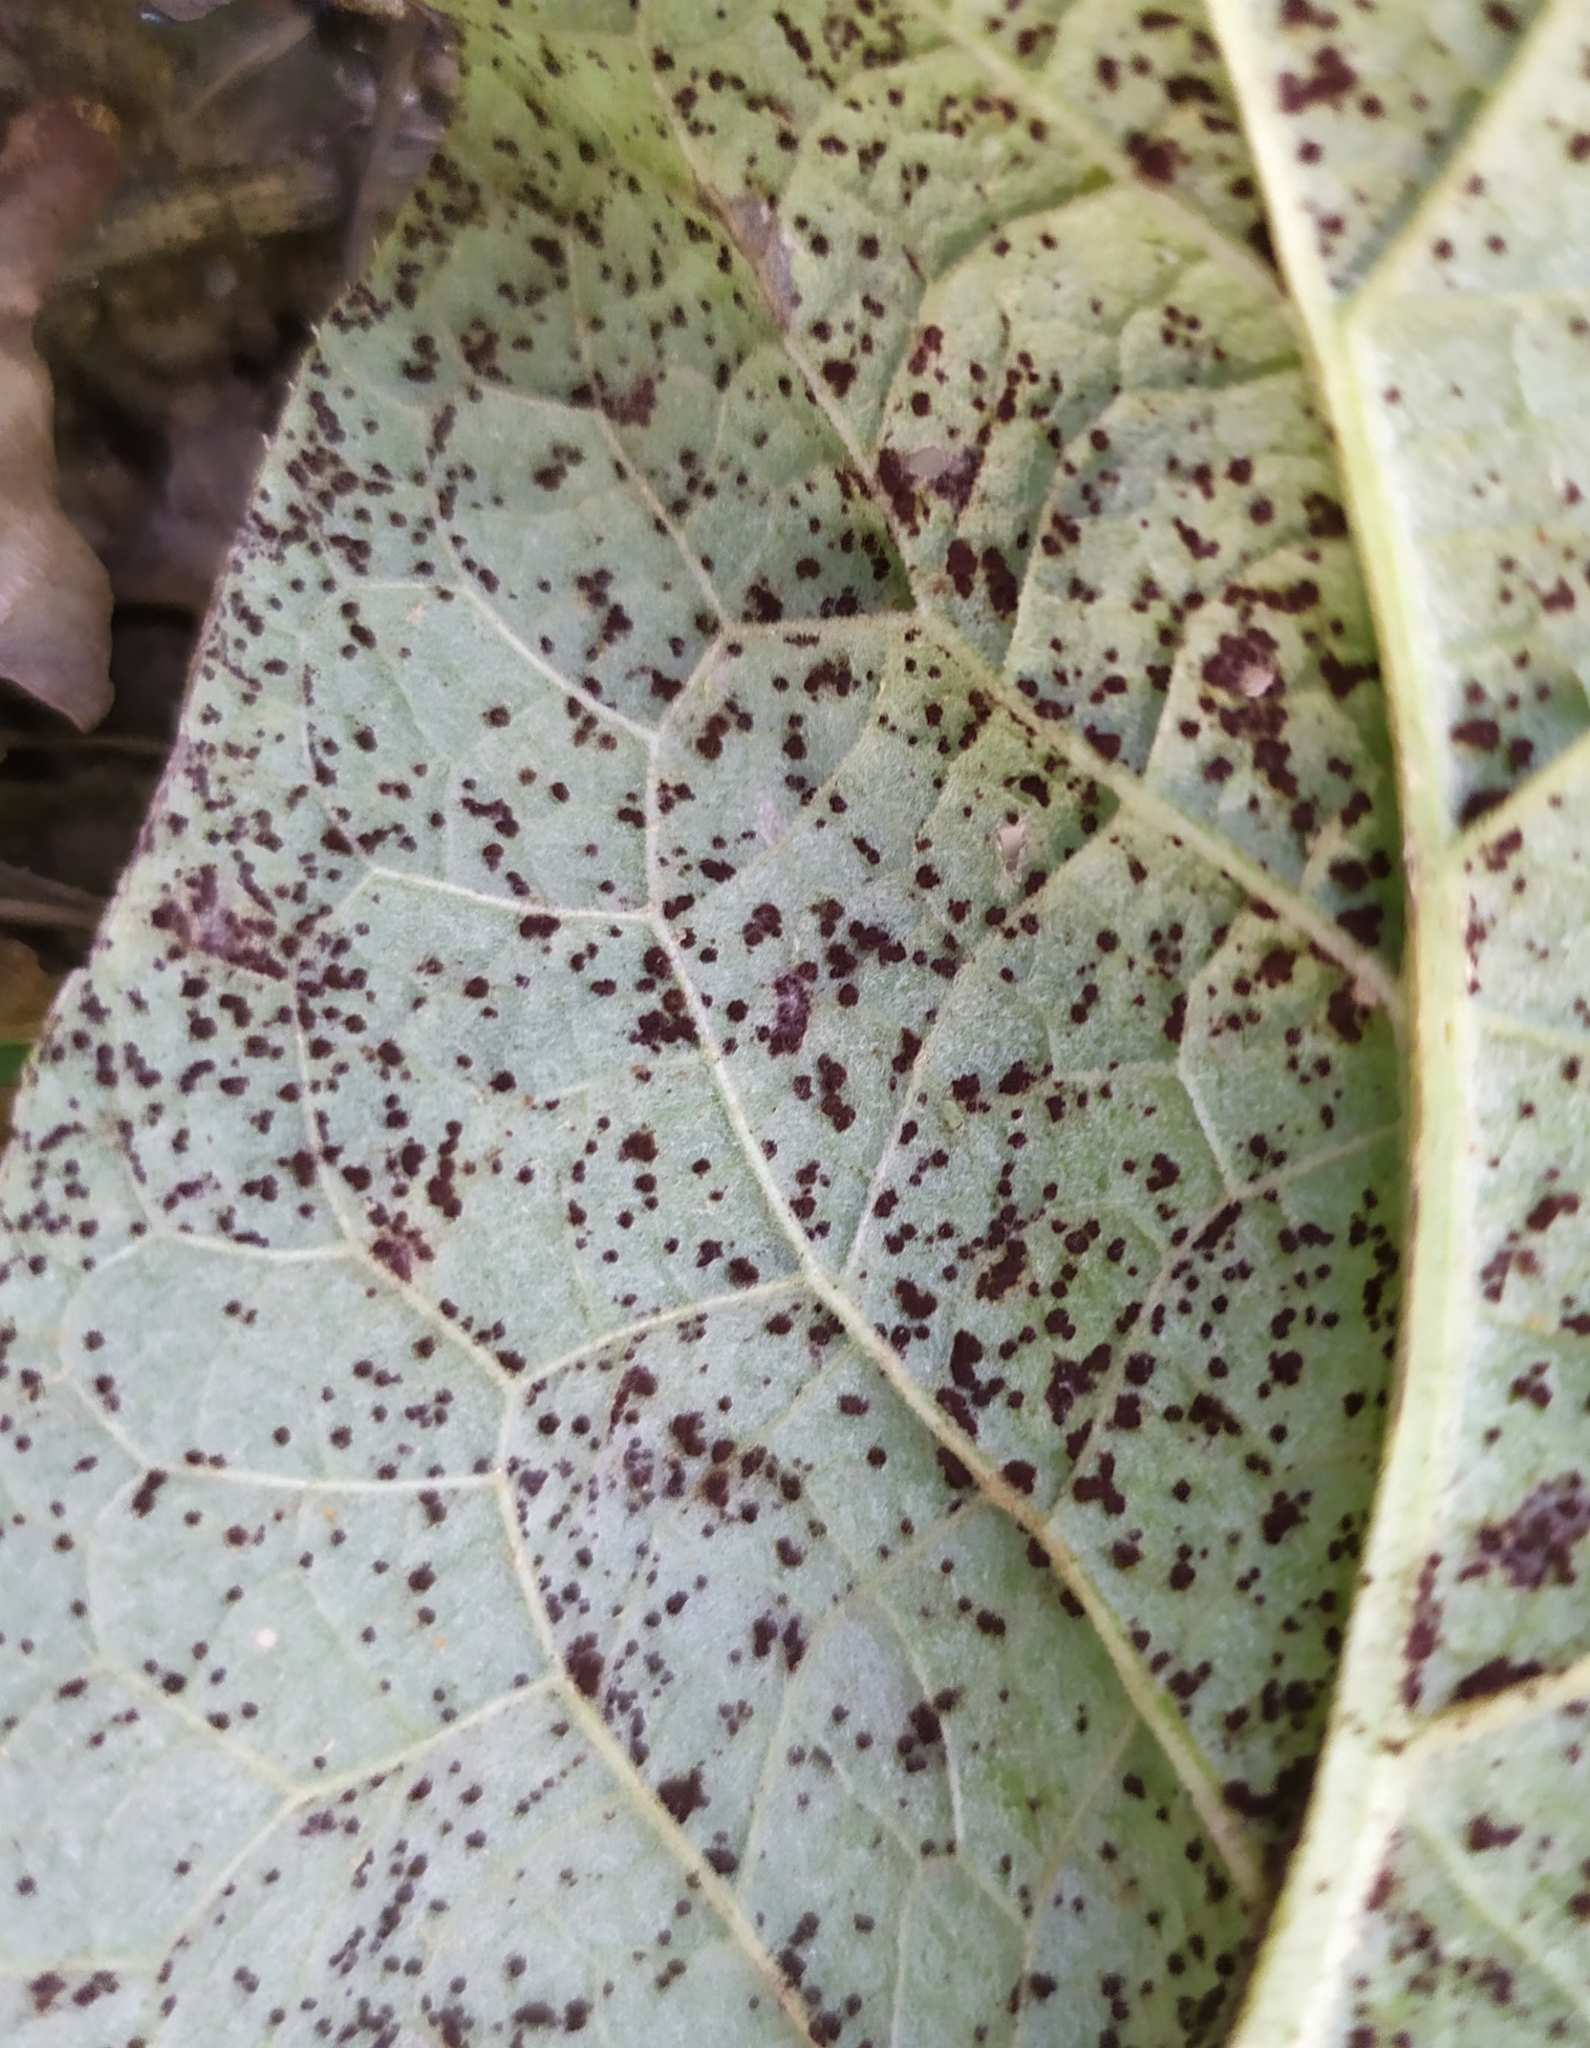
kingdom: Fungi
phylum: Basidiomycota
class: Pucciniomycetes
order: Pucciniales
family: Pucciniaceae
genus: Puccinia
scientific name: Puccinia calcitrapae
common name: Rust fungus
